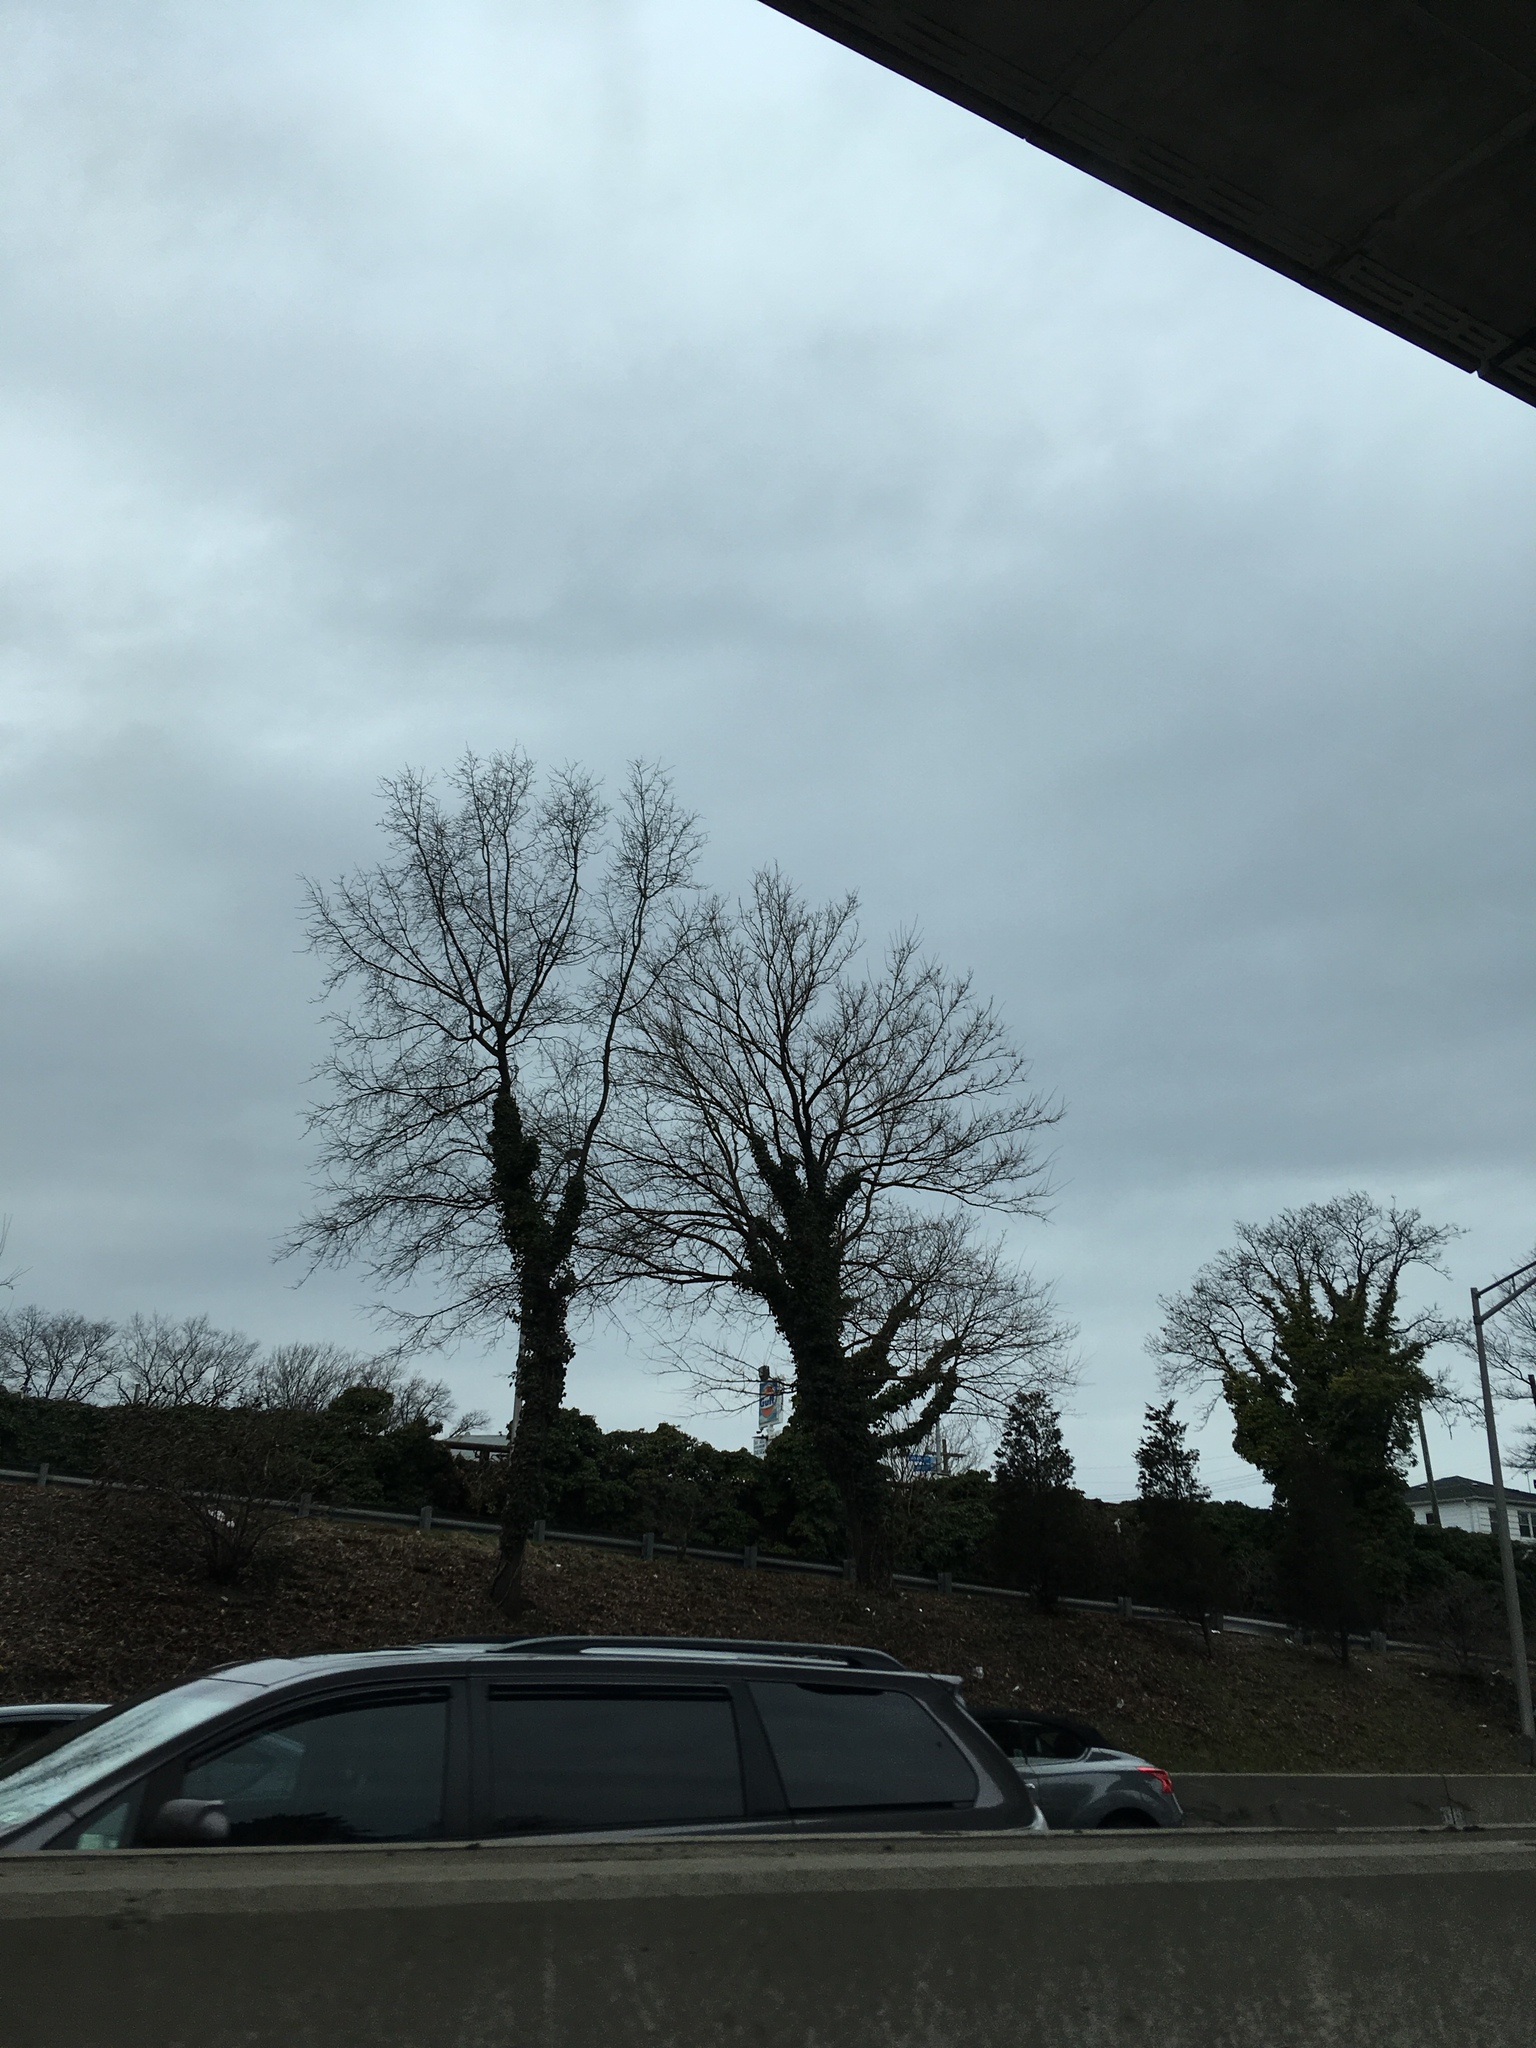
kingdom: Plantae
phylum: Tracheophyta
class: Magnoliopsida
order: Apiales
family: Araliaceae
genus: Hedera
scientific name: Hedera helix
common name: Ivy
